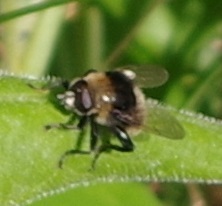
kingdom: Animalia
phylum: Arthropoda
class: Insecta
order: Diptera
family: Syrphidae
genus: Merodon
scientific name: Merodon equestris
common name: Greater bulb-fly
